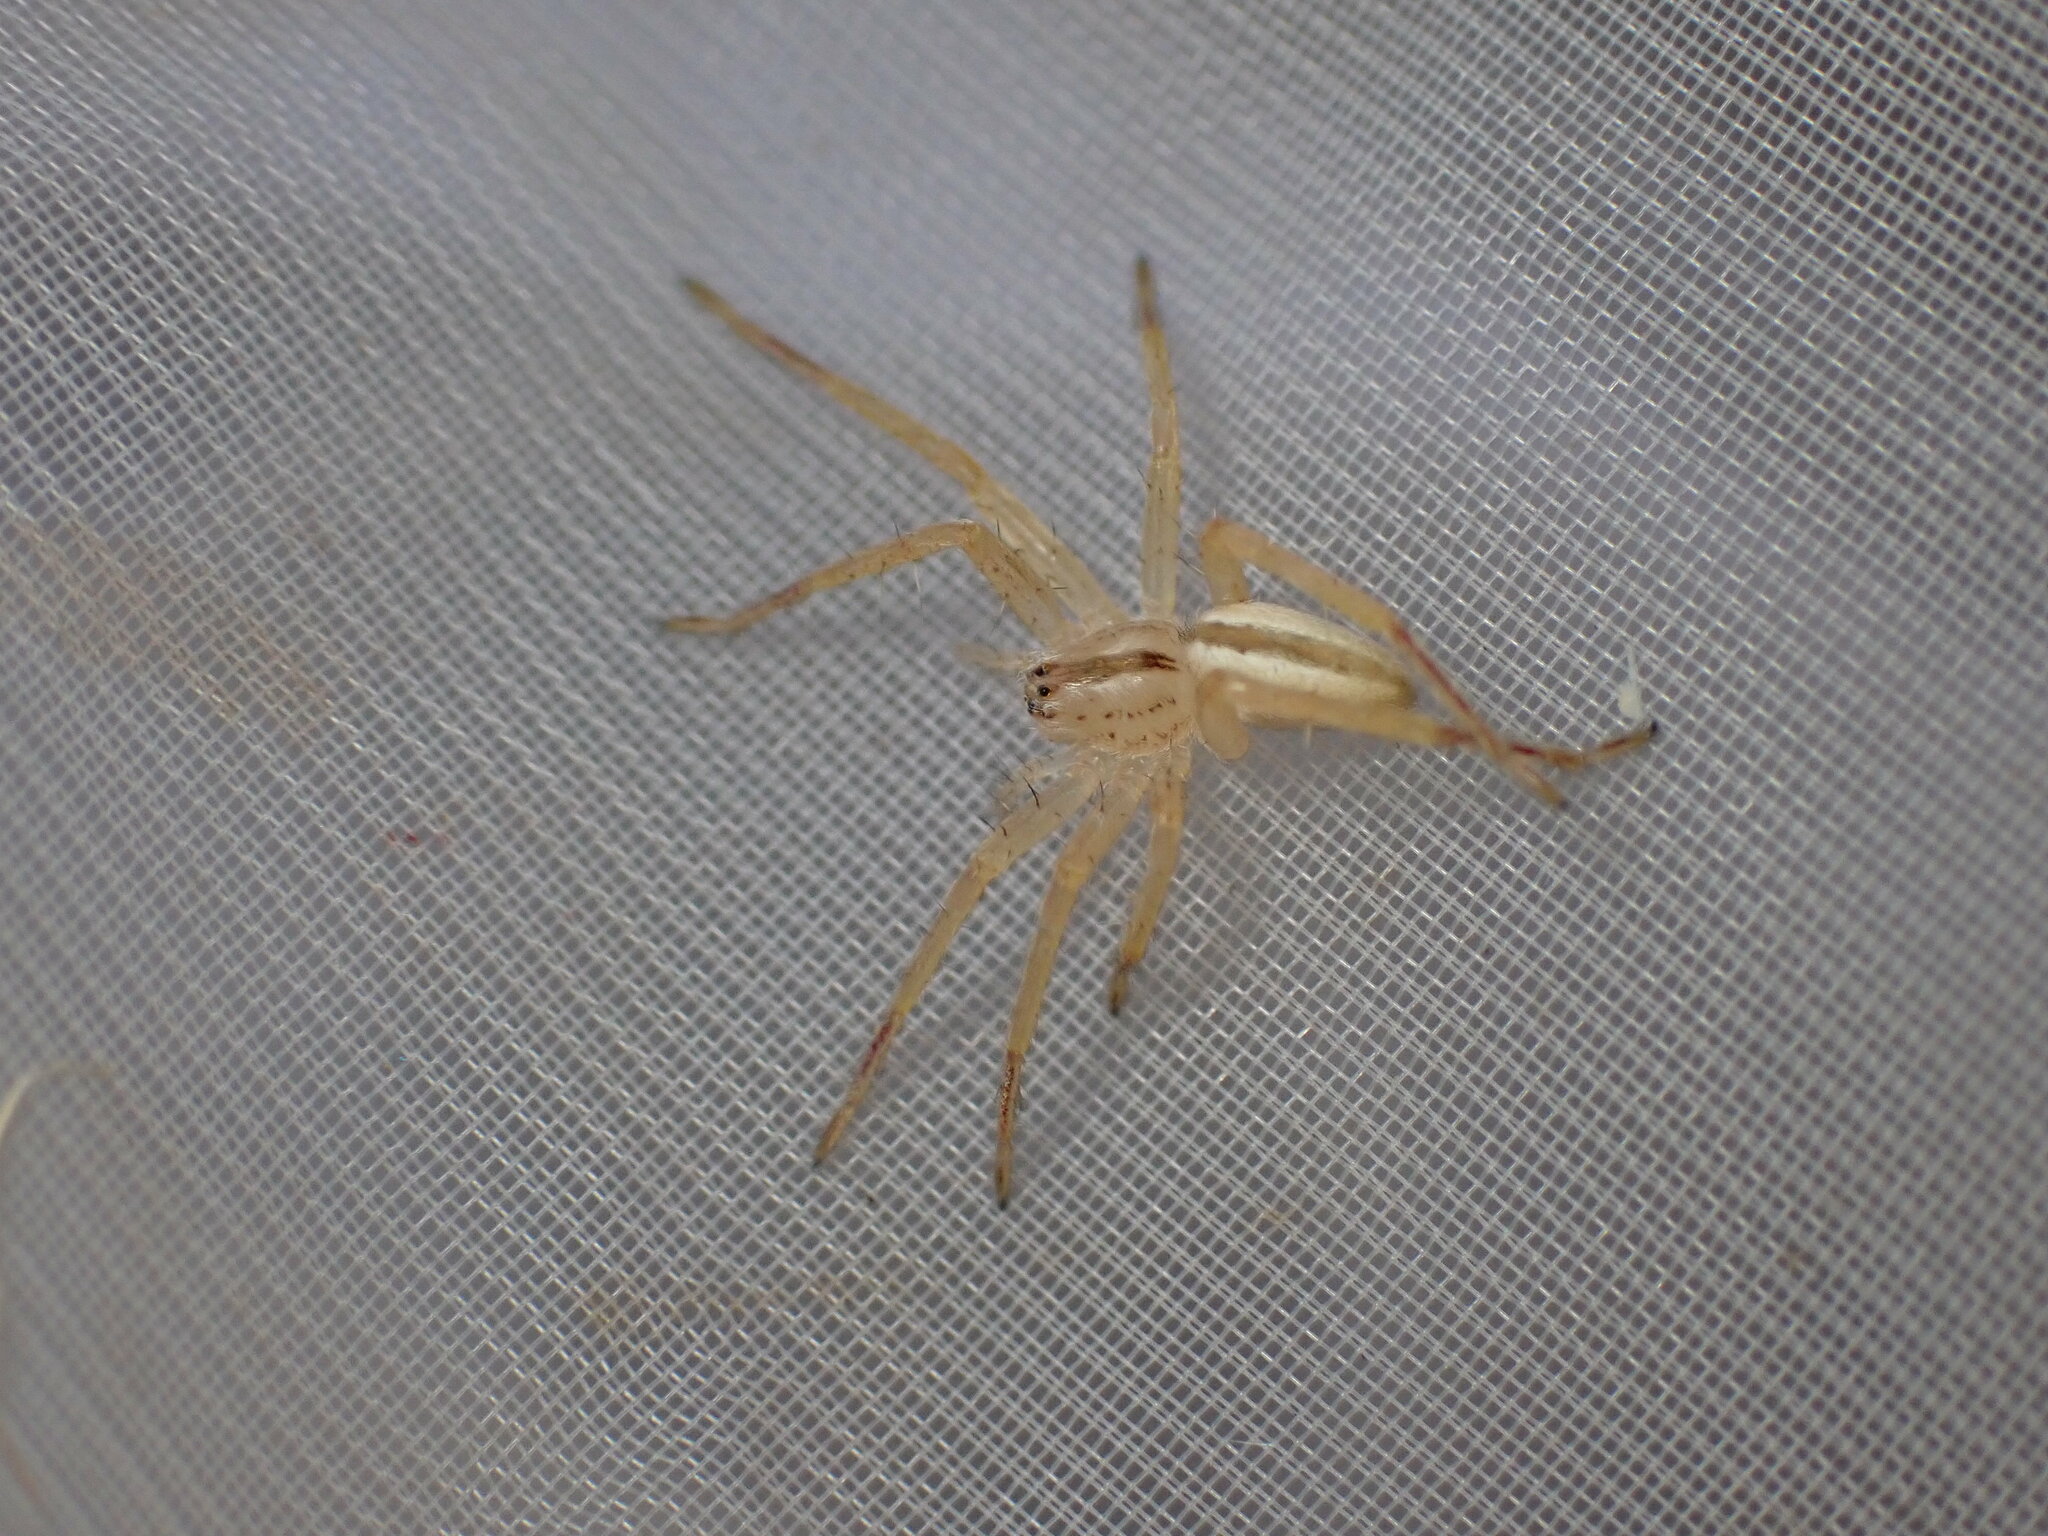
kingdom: Animalia
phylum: Arthropoda
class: Arachnida
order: Araneae
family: Sparassidae
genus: Micrommata
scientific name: Micrommata ligurina
